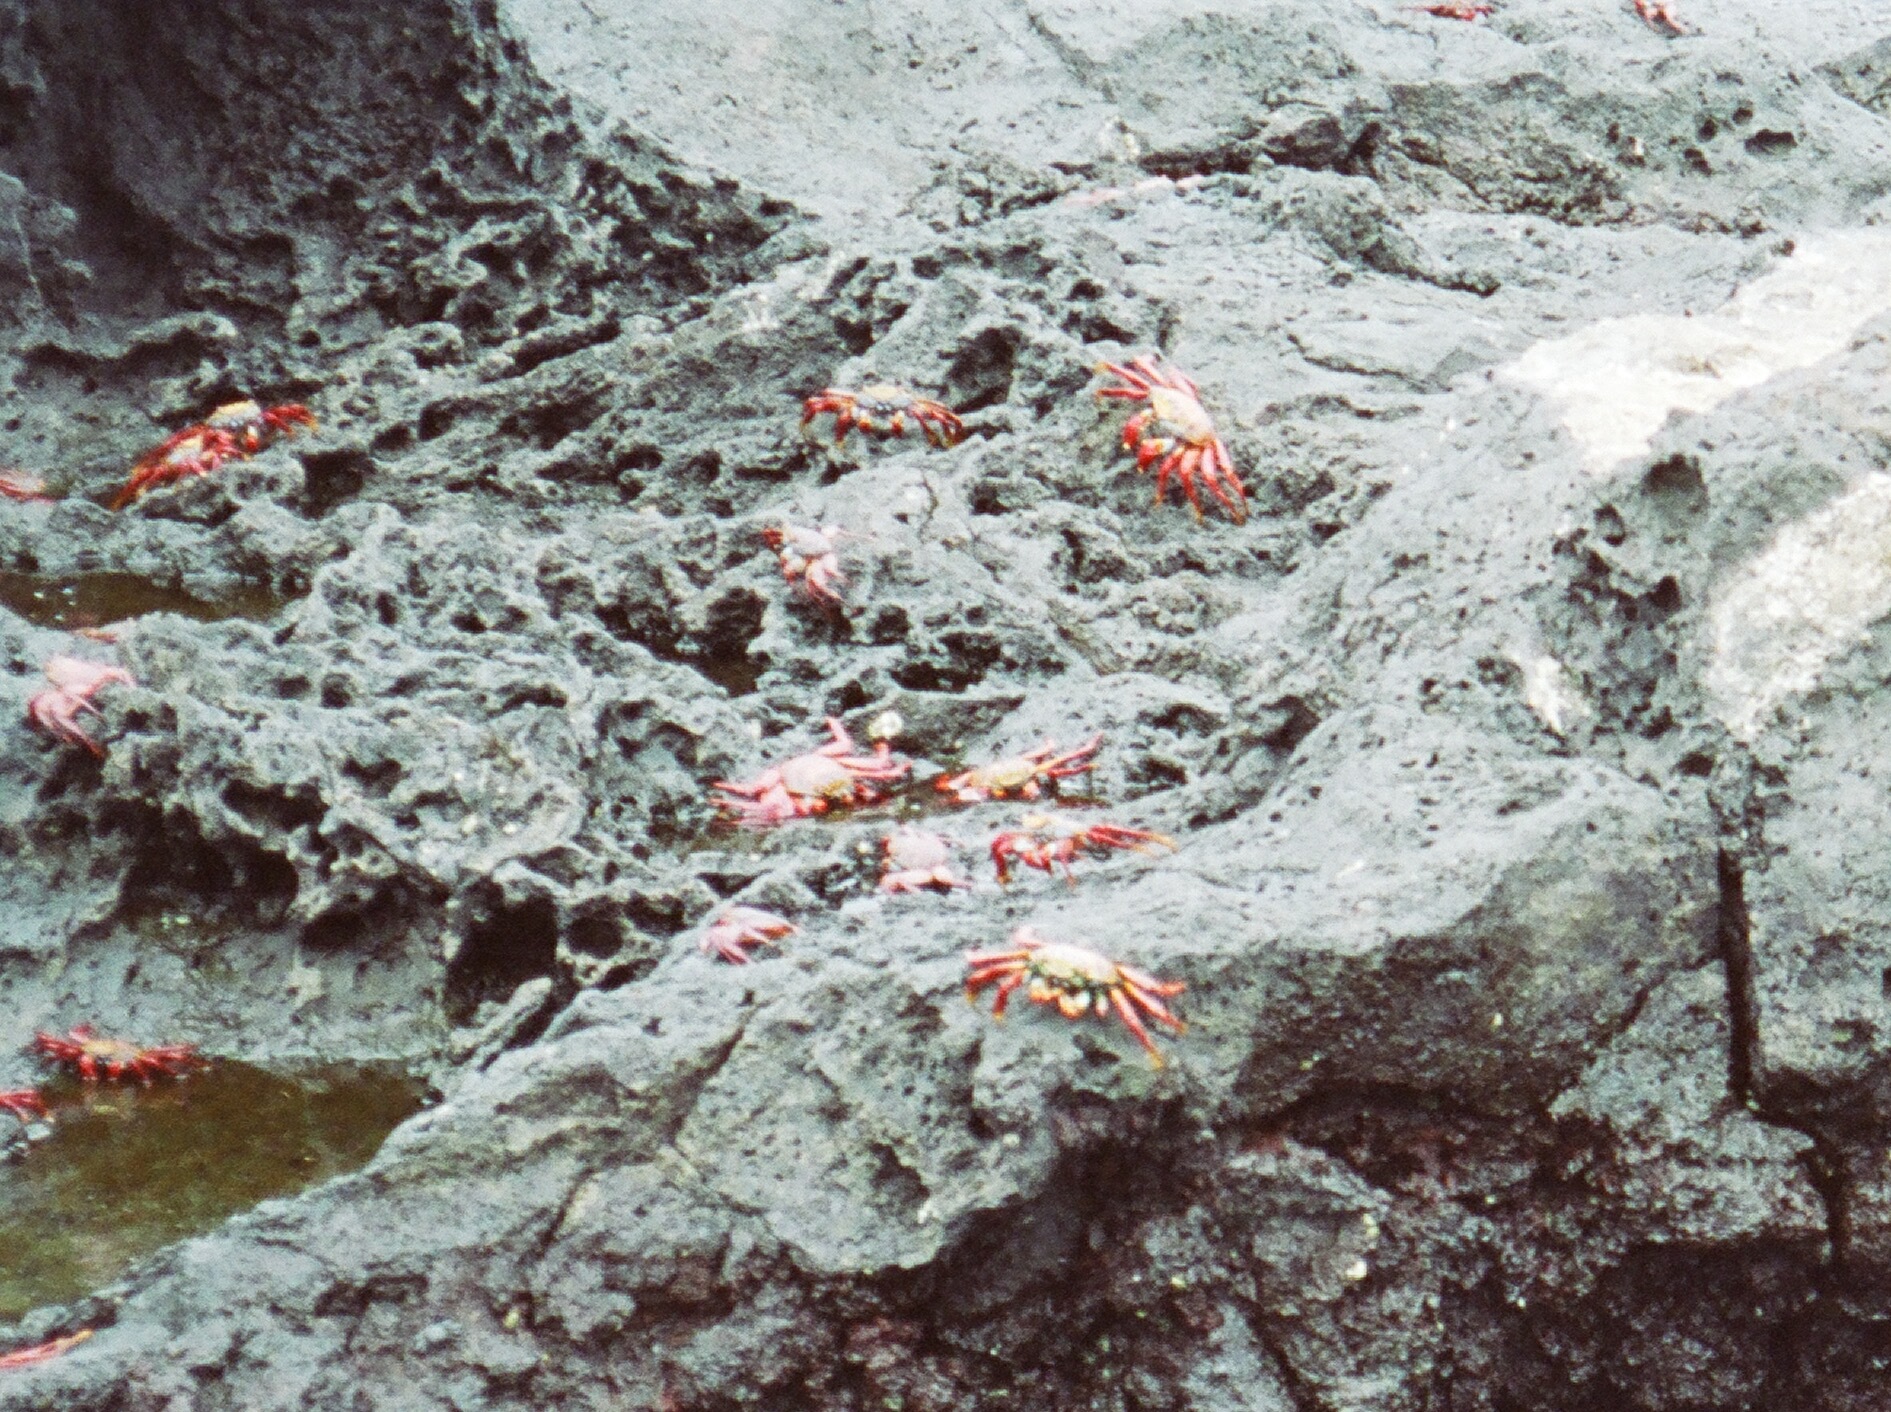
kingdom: Animalia
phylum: Arthropoda
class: Malacostraca
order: Decapoda
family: Grapsidae
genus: Grapsus
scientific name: Grapsus grapsus
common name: Sally lightfoot
